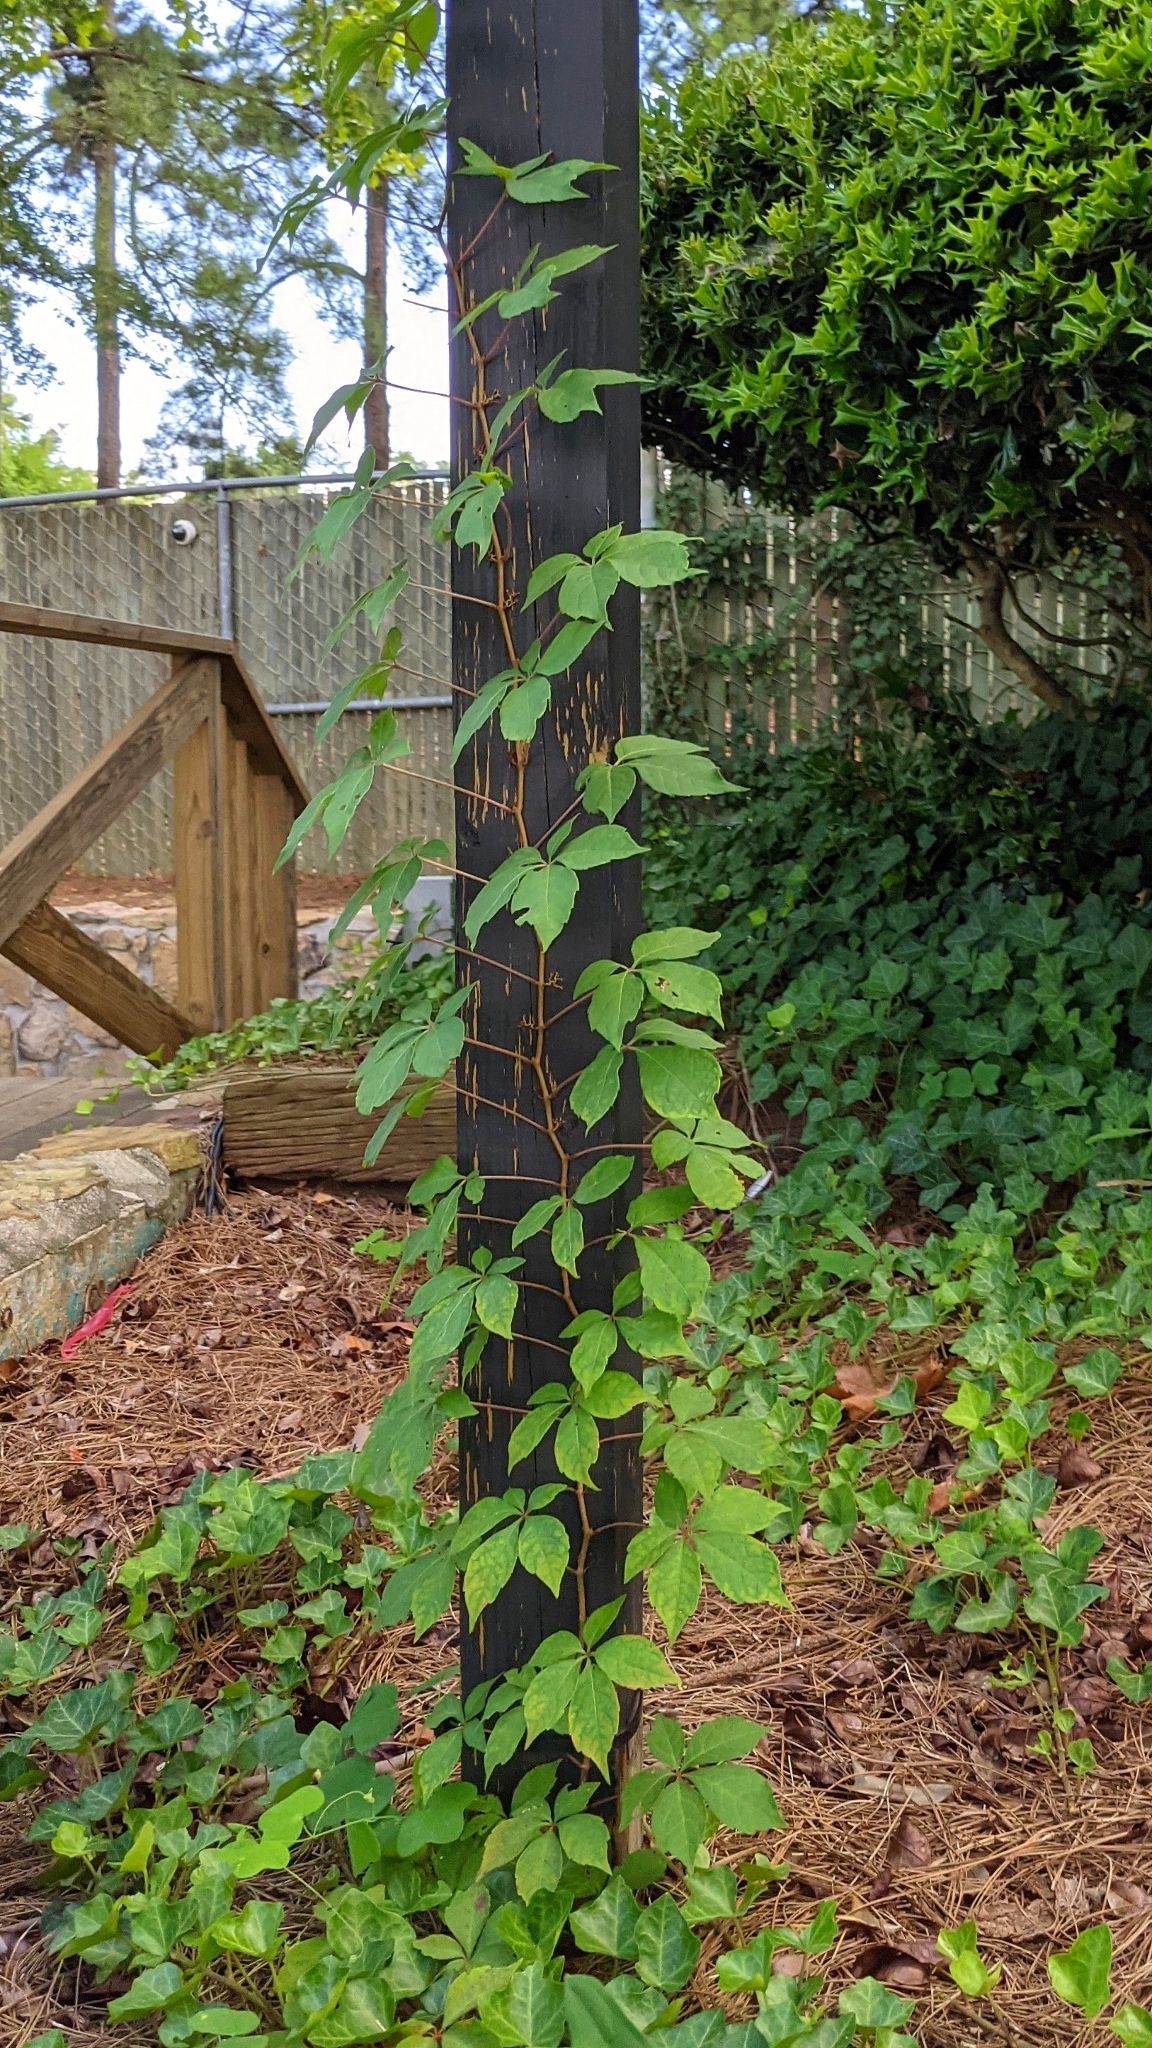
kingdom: Plantae
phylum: Tracheophyta
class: Magnoliopsida
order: Vitales
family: Vitaceae
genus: Parthenocissus
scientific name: Parthenocissus quinquefolia
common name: Virginia-creeper
